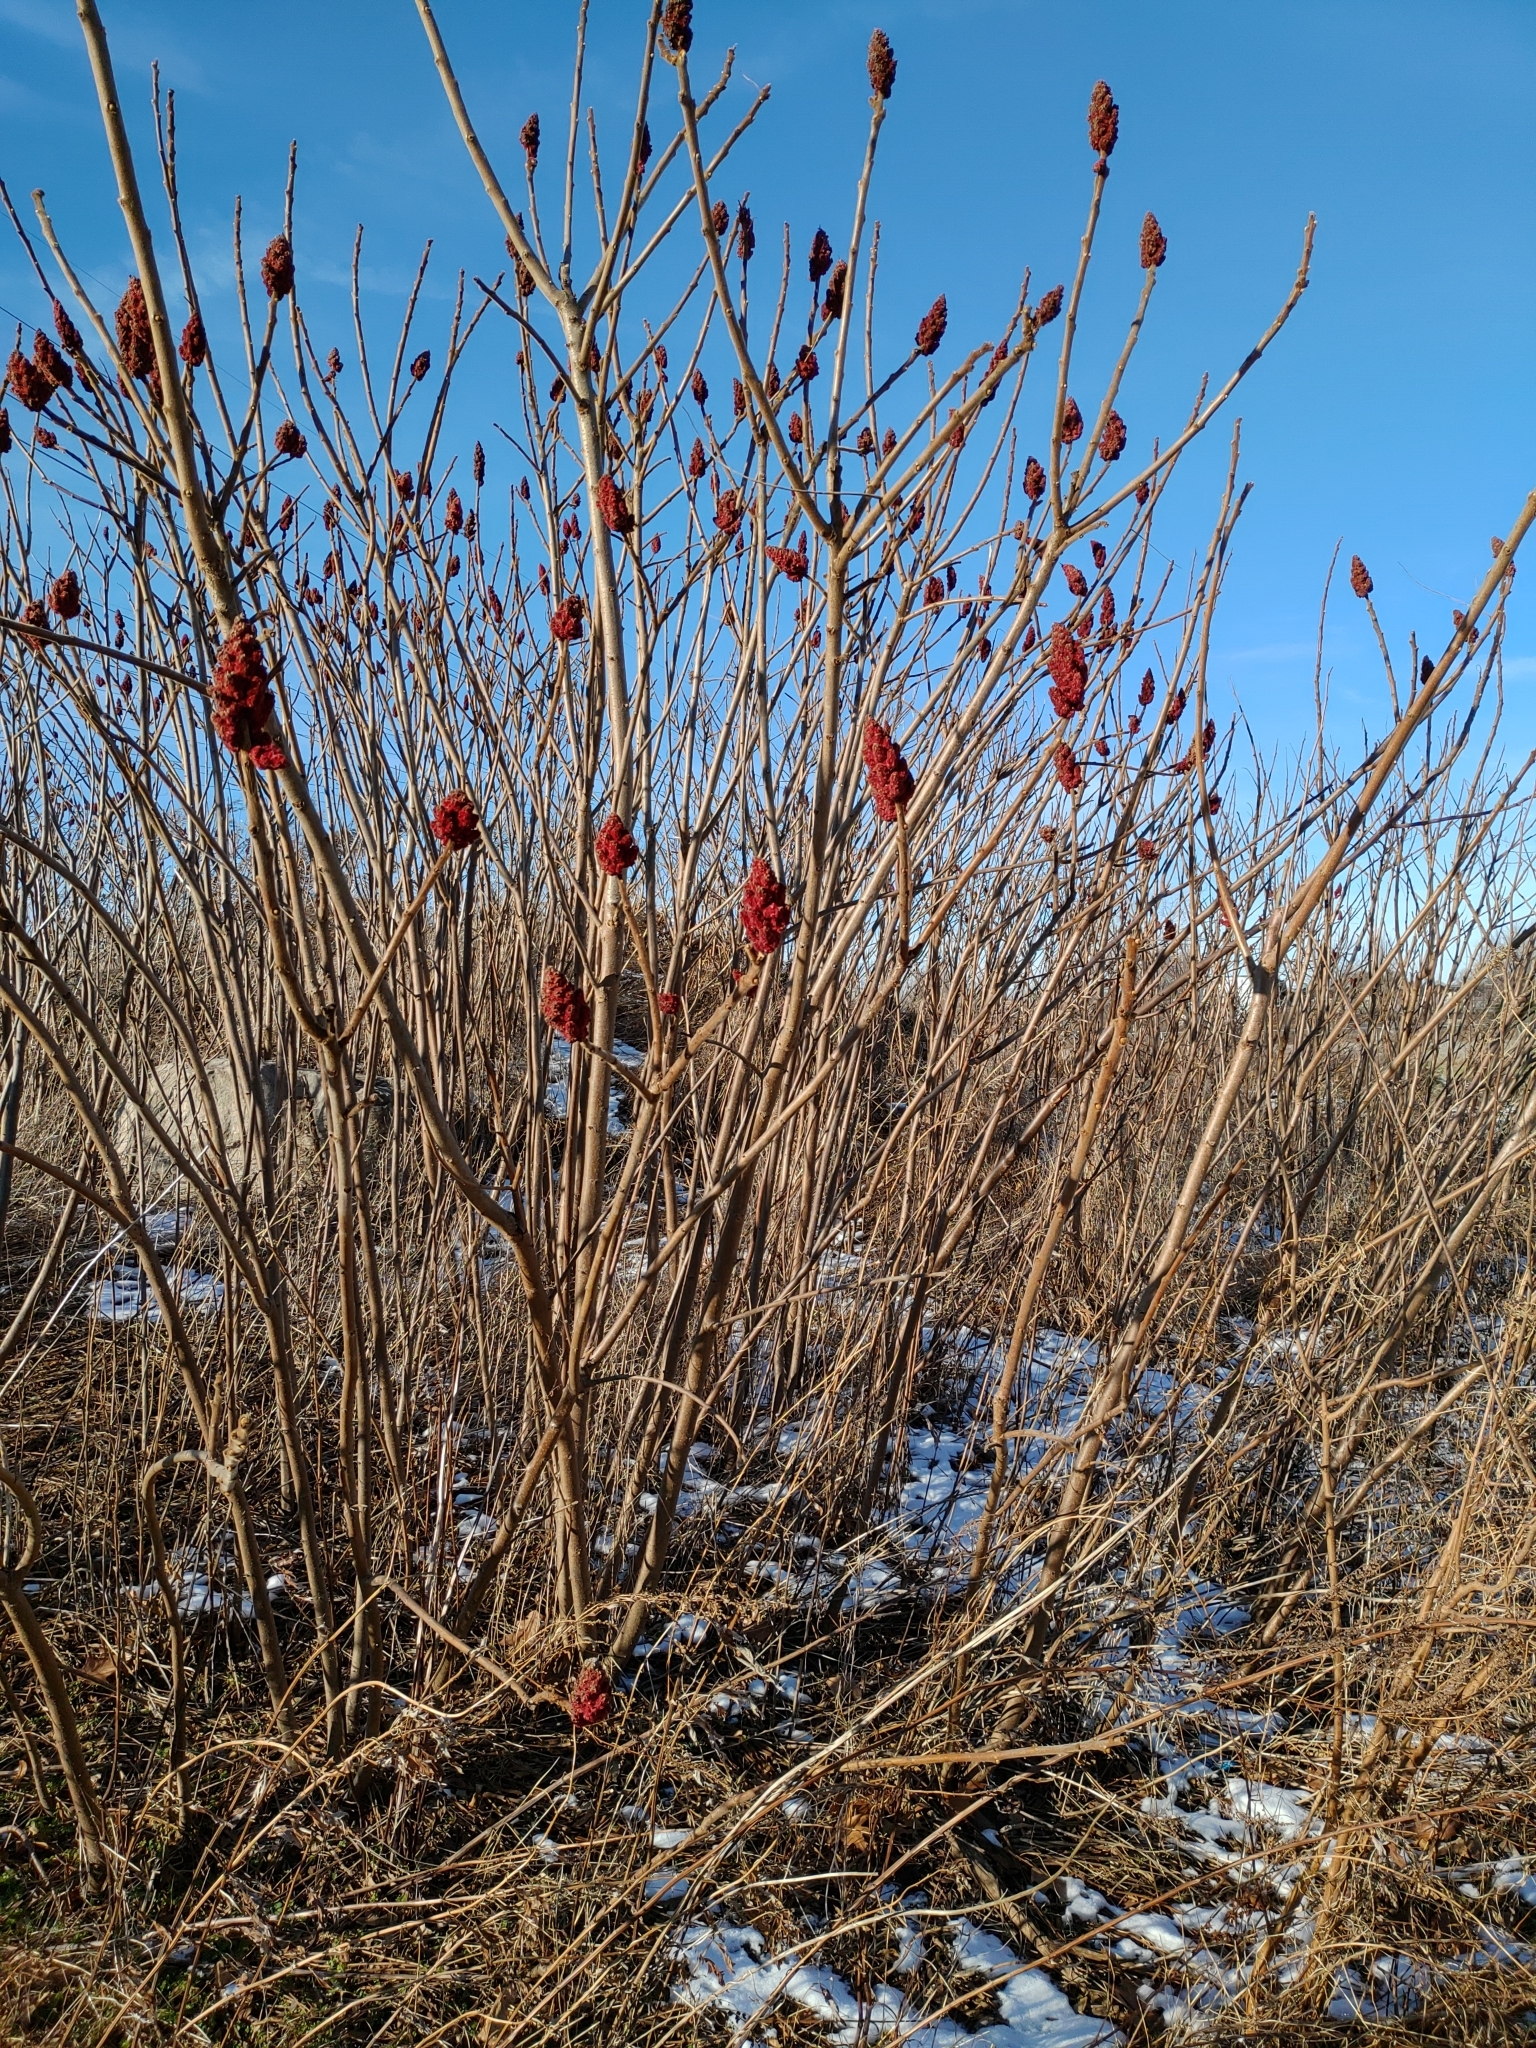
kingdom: Plantae
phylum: Tracheophyta
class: Magnoliopsida
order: Sapindales
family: Anacardiaceae
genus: Rhus
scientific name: Rhus typhina
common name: Staghorn sumac
